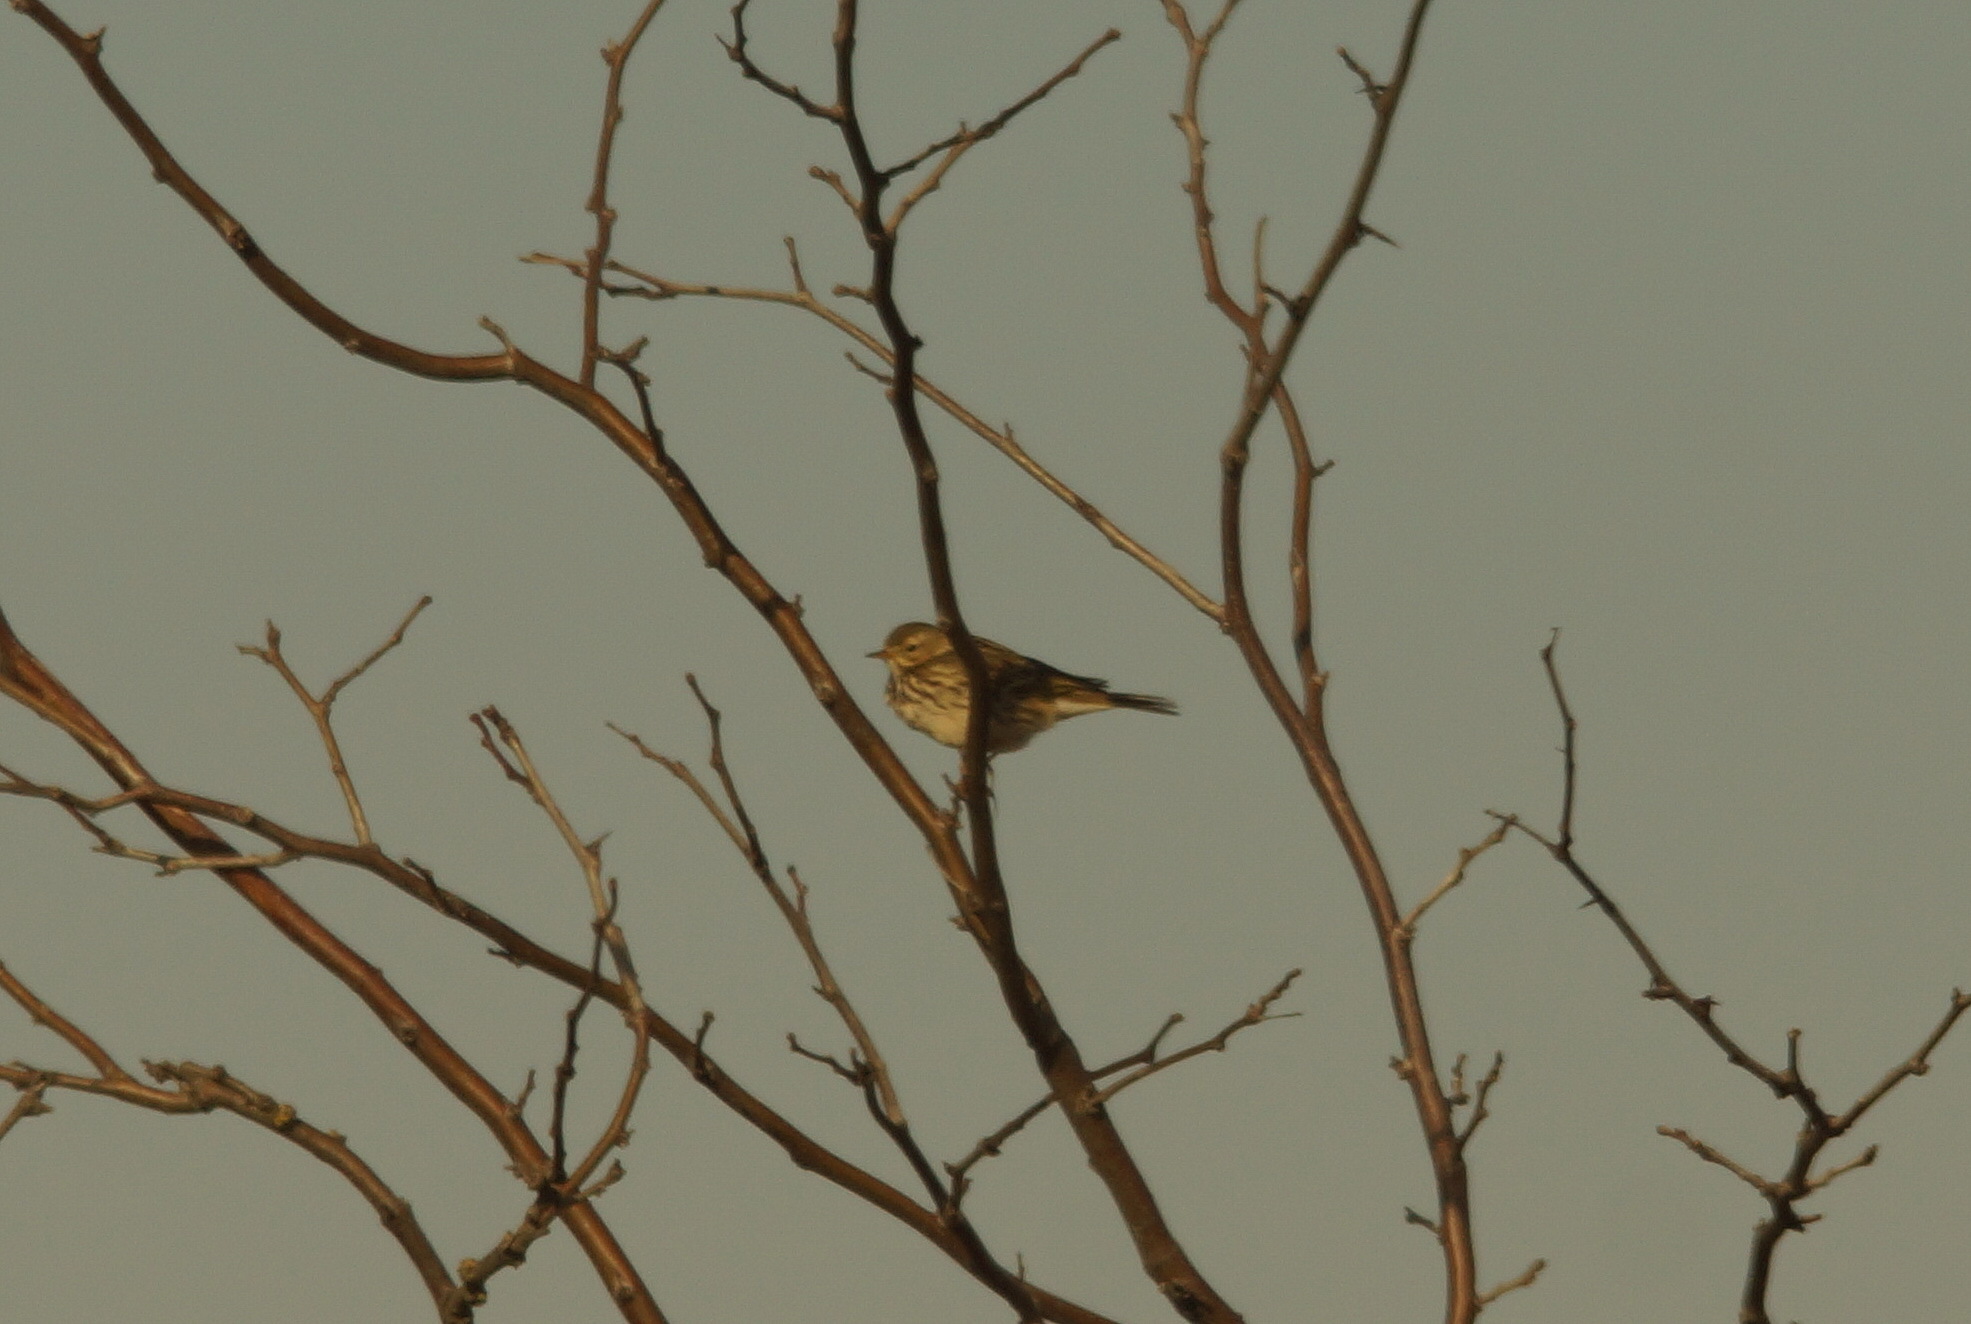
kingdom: Animalia
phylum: Chordata
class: Aves
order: Passeriformes
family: Motacillidae
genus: Anthus
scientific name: Anthus pratensis
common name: Meadow pipit
